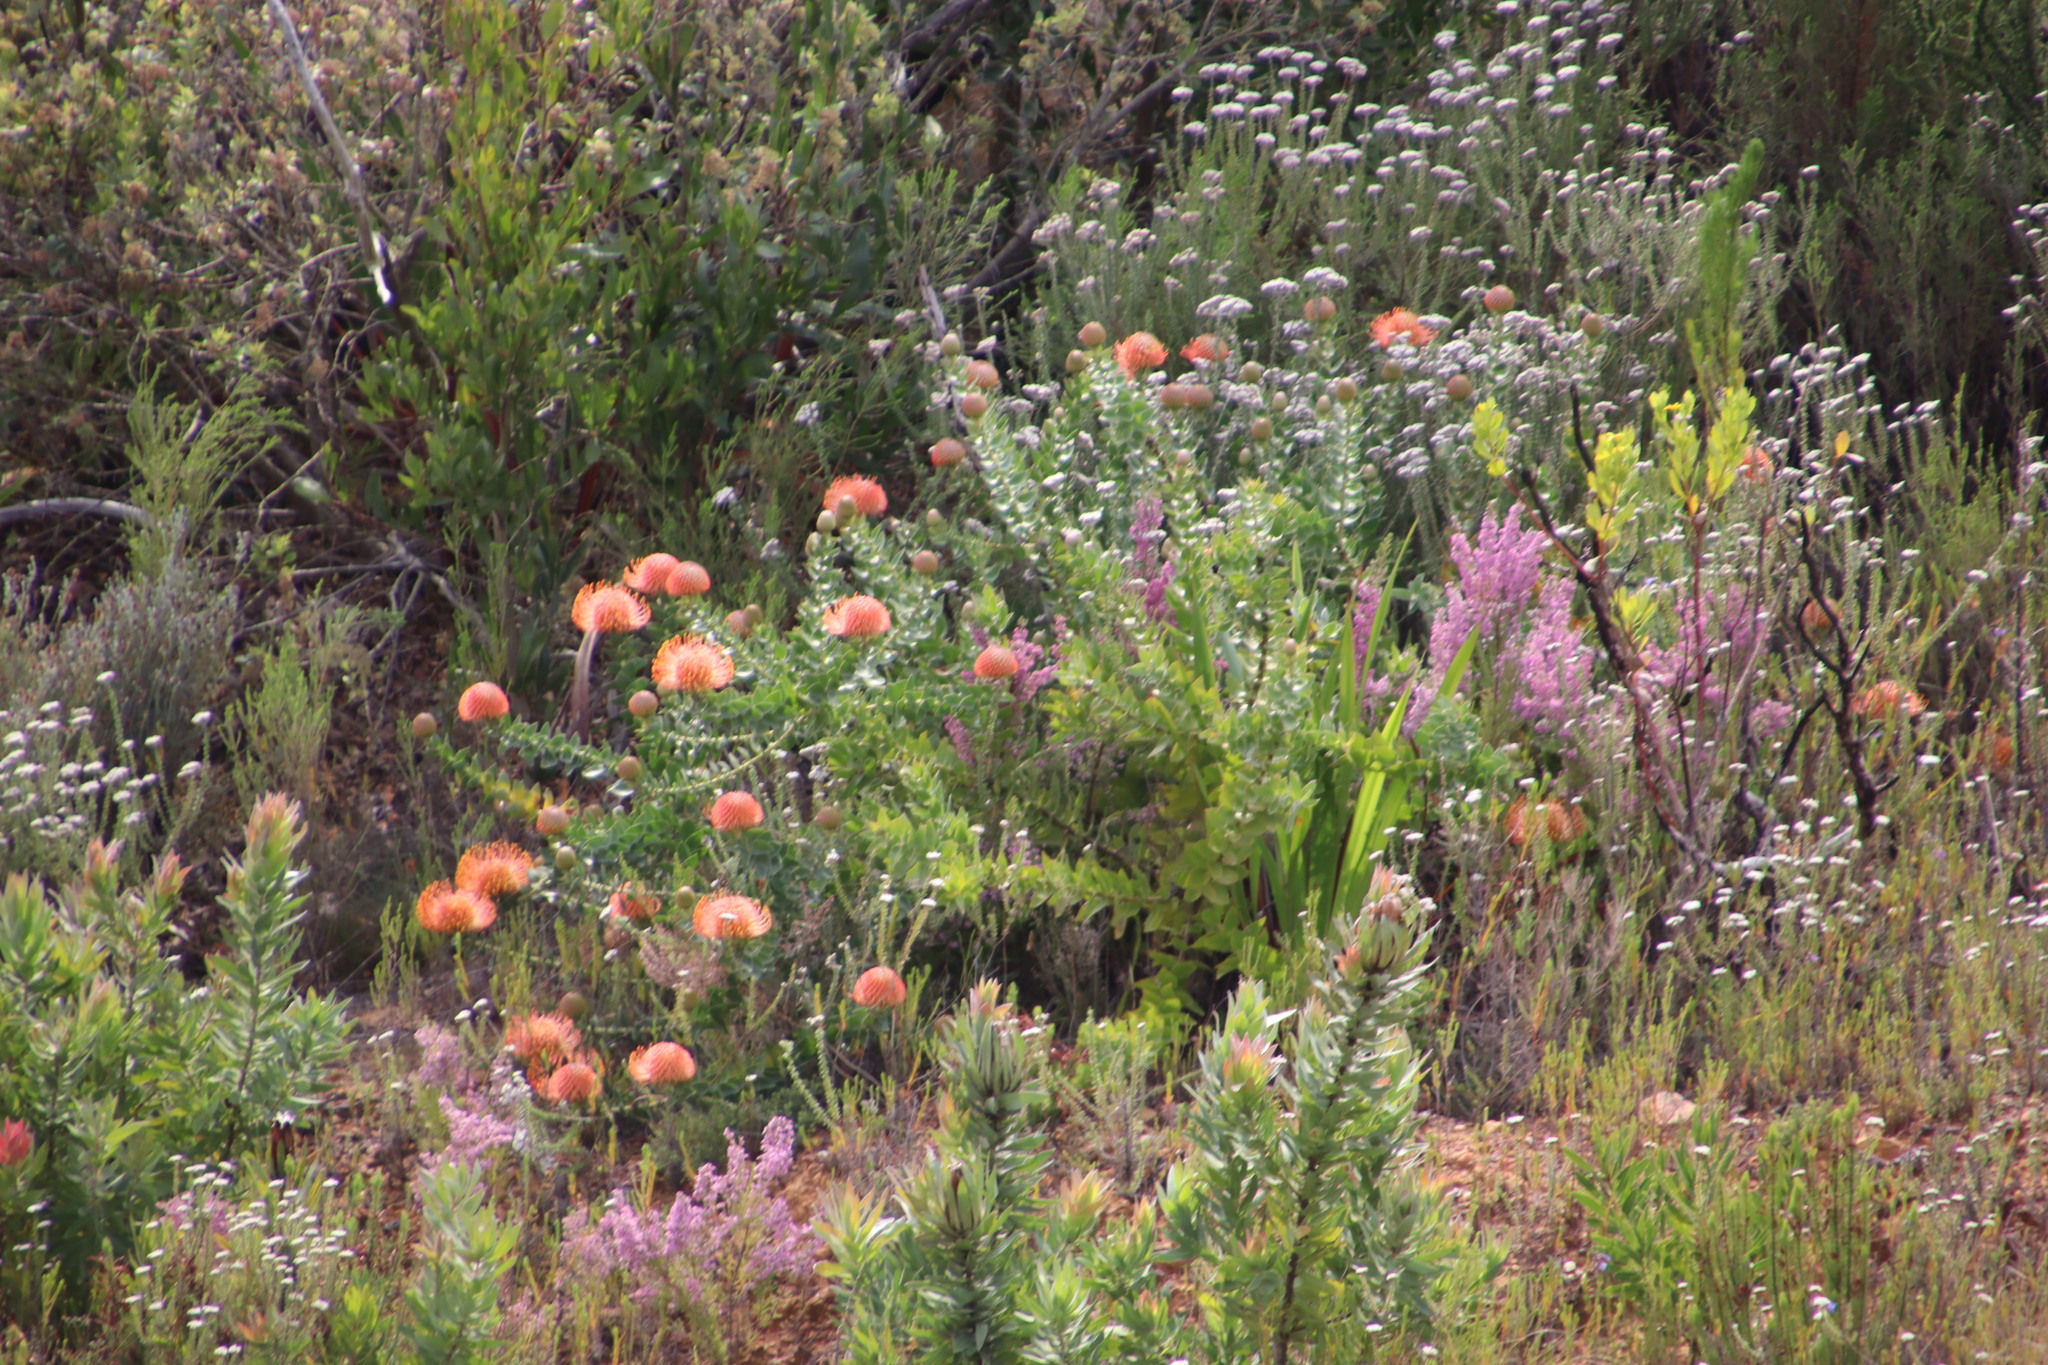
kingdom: Plantae
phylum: Tracheophyta
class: Magnoliopsida
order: Proteales
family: Proteaceae
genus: Leucospermum
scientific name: Leucospermum cordifolium
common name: Red pincushion-protea
